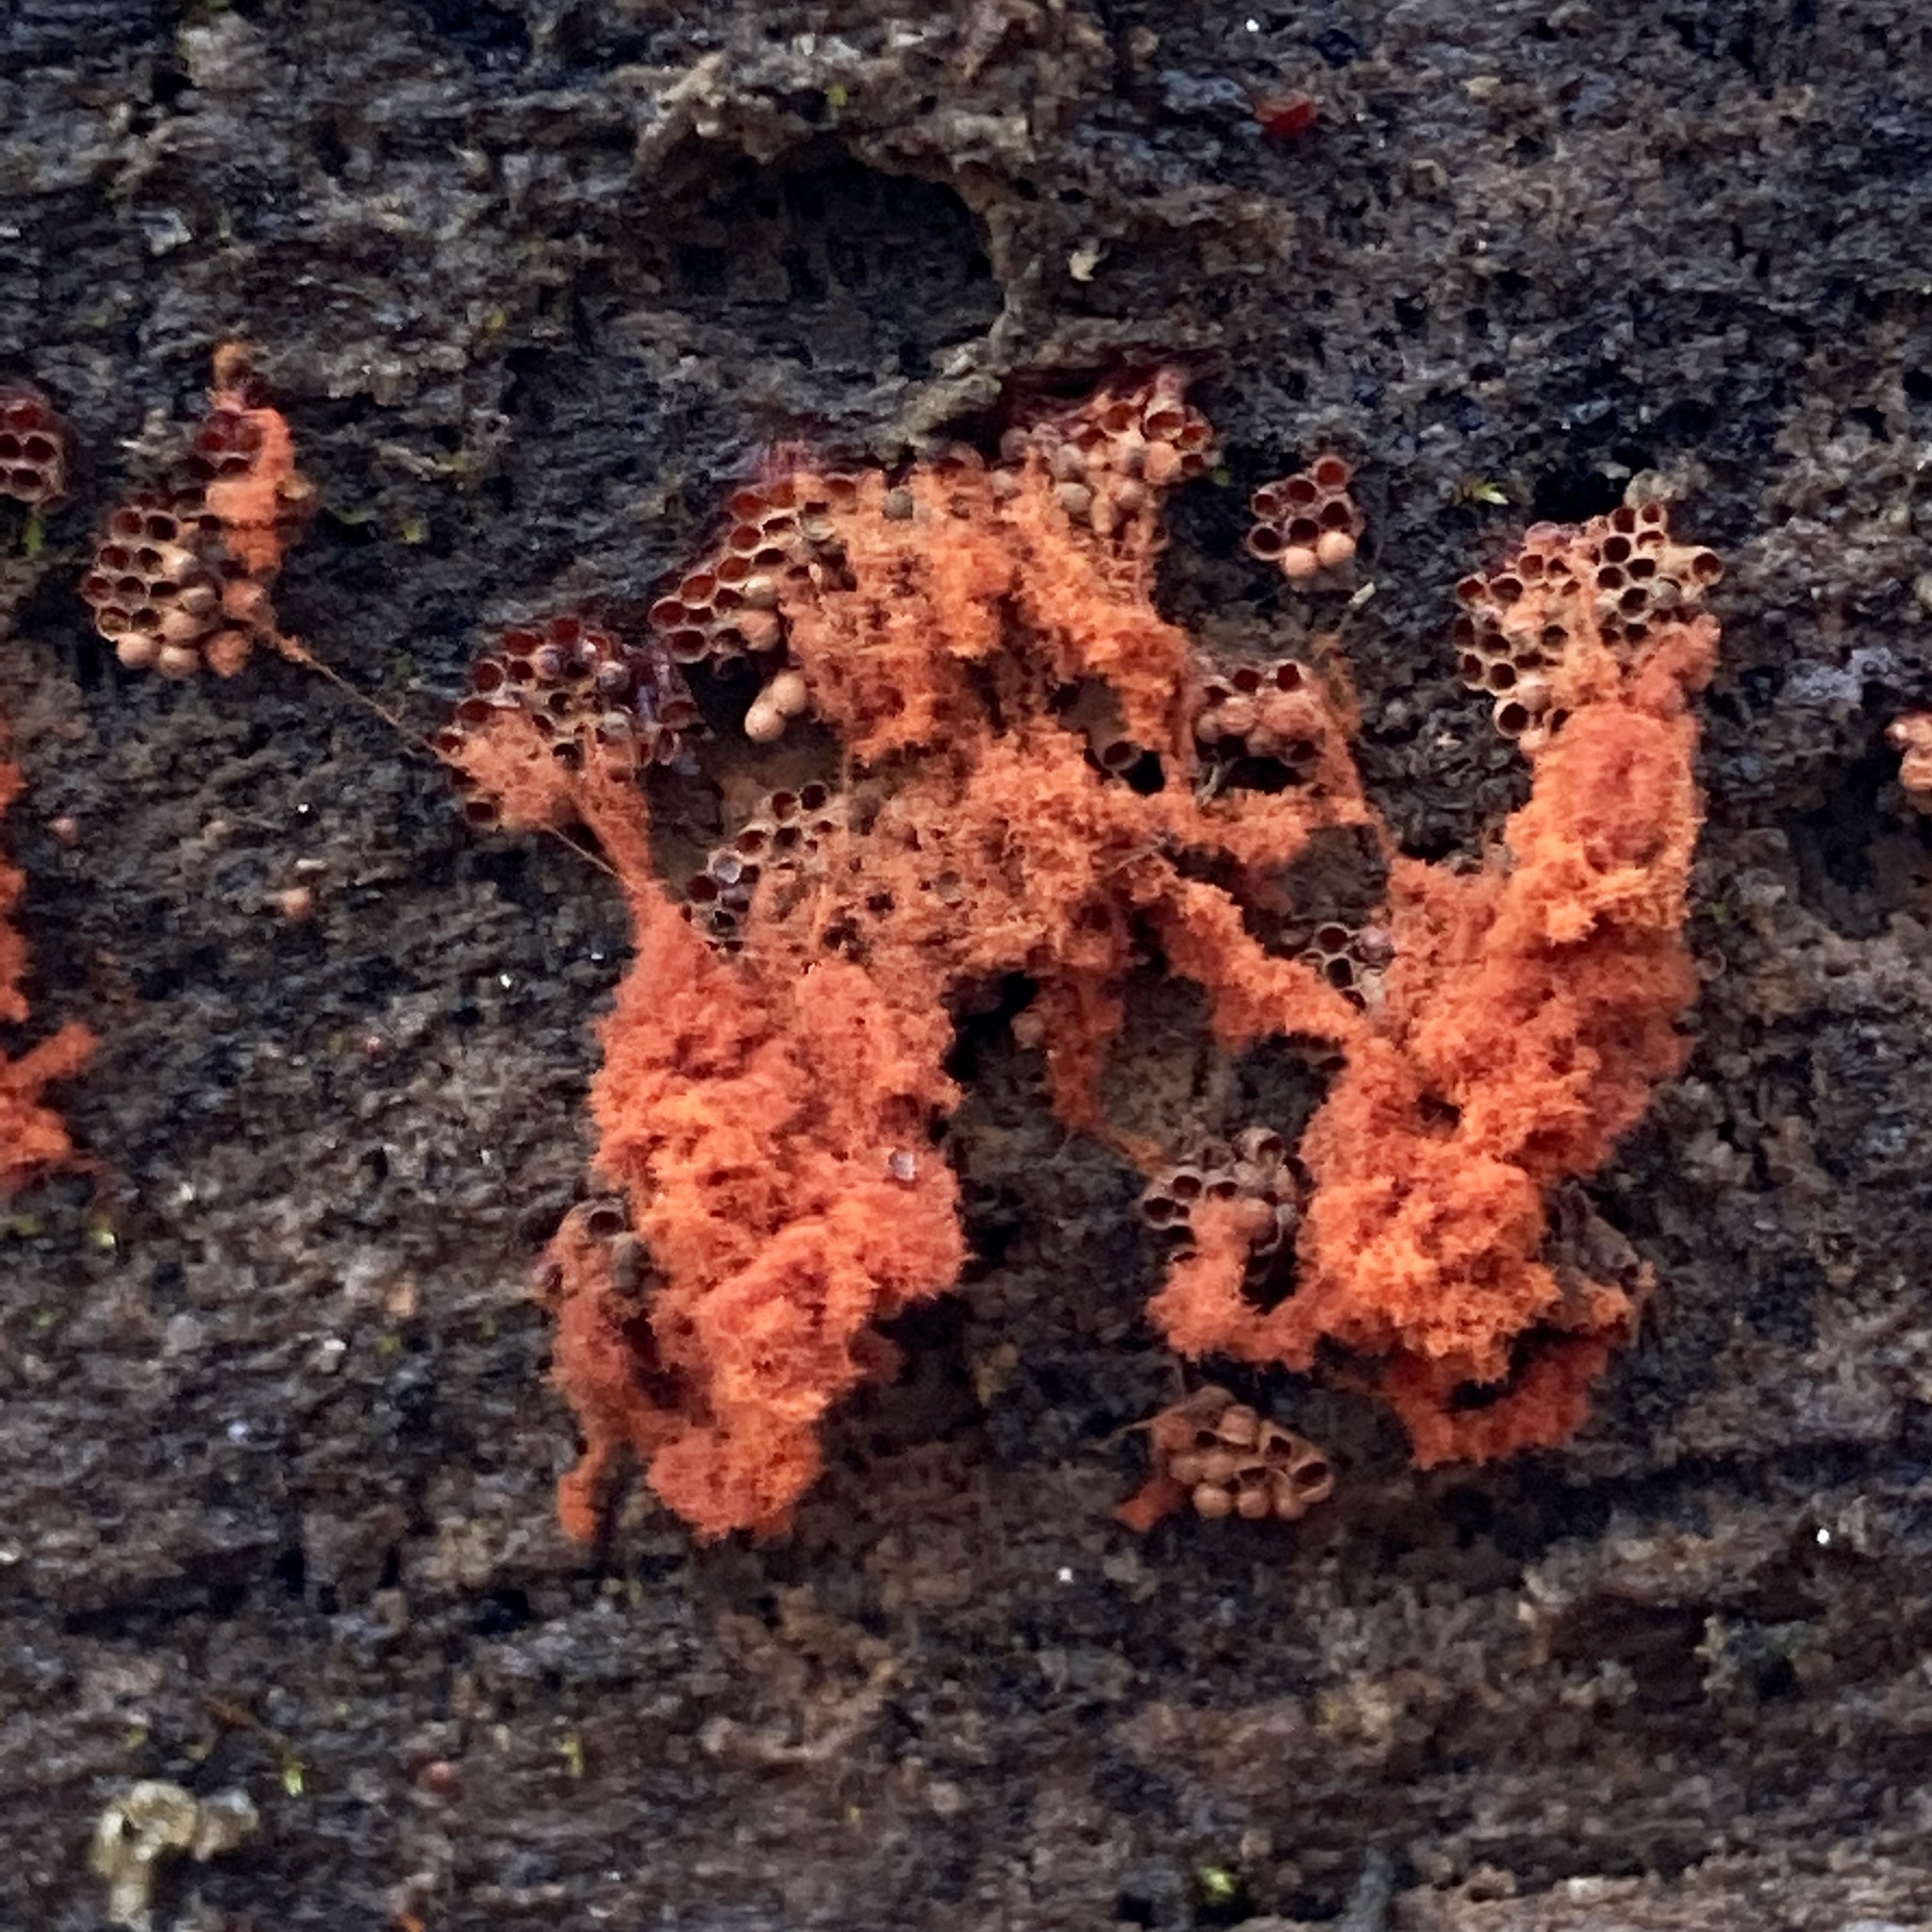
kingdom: Protozoa
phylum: Mycetozoa
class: Myxomycetes
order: Trichiales
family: Trichiaceae
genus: Metatrichia
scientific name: Metatrichia vesparia
